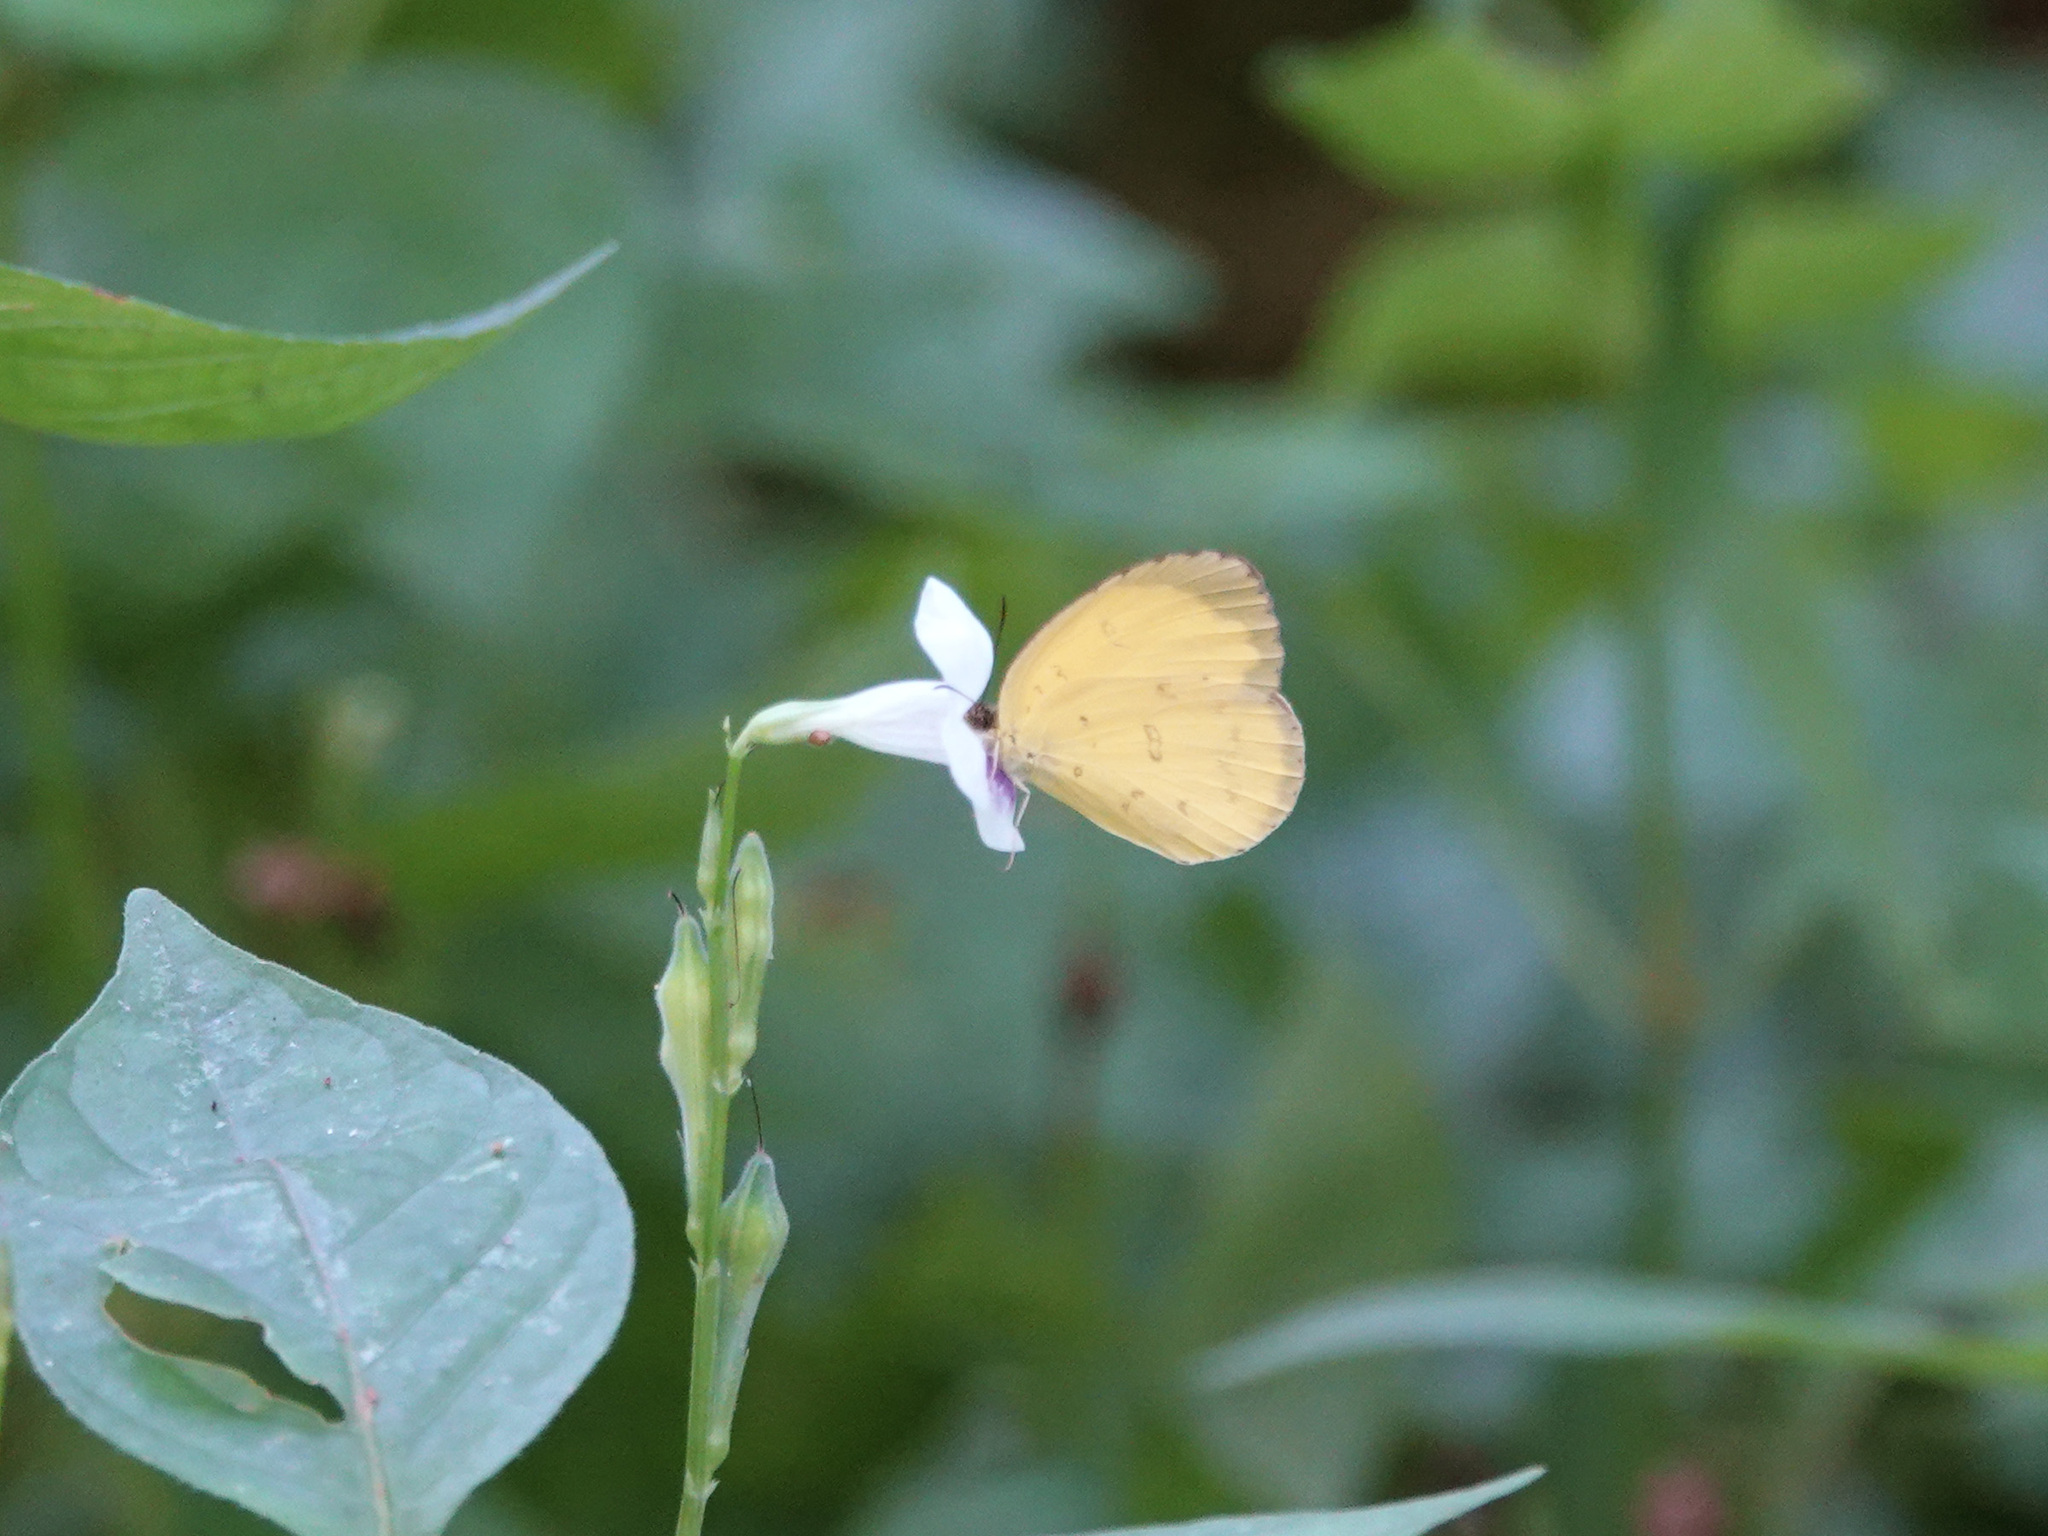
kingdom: Animalia
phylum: Arthropoda
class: Insecta
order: Lepidoptera
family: Pieridae
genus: Eurema
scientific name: Eurema blanda
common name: Three-spot grass yellow
